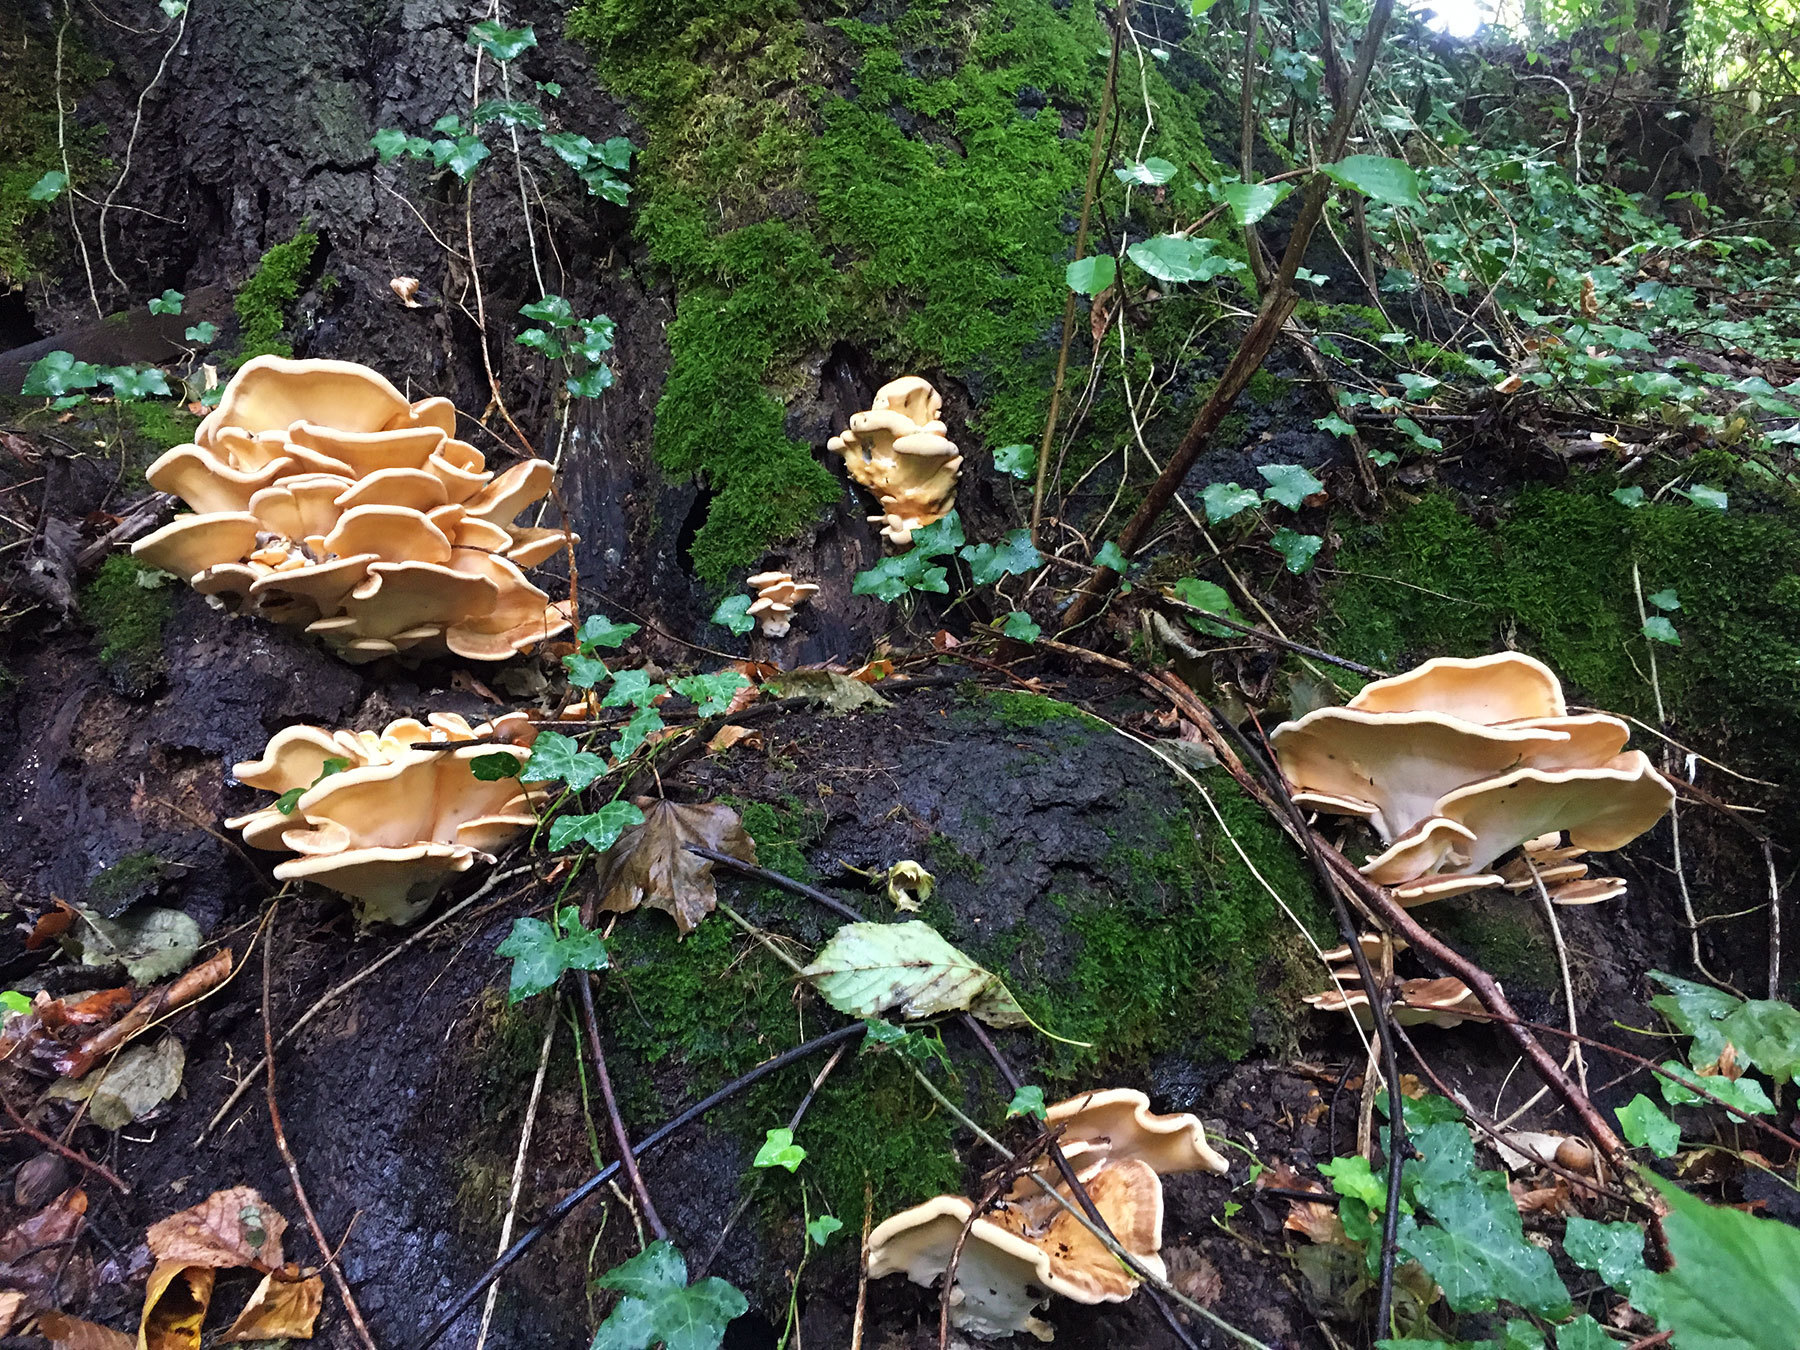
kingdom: Fungi
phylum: Basidiomycota
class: Agaricomycetes
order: Polyporales
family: Meripilaceae
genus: Meripilus
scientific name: Meripilus giganteus
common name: Giant polypore
